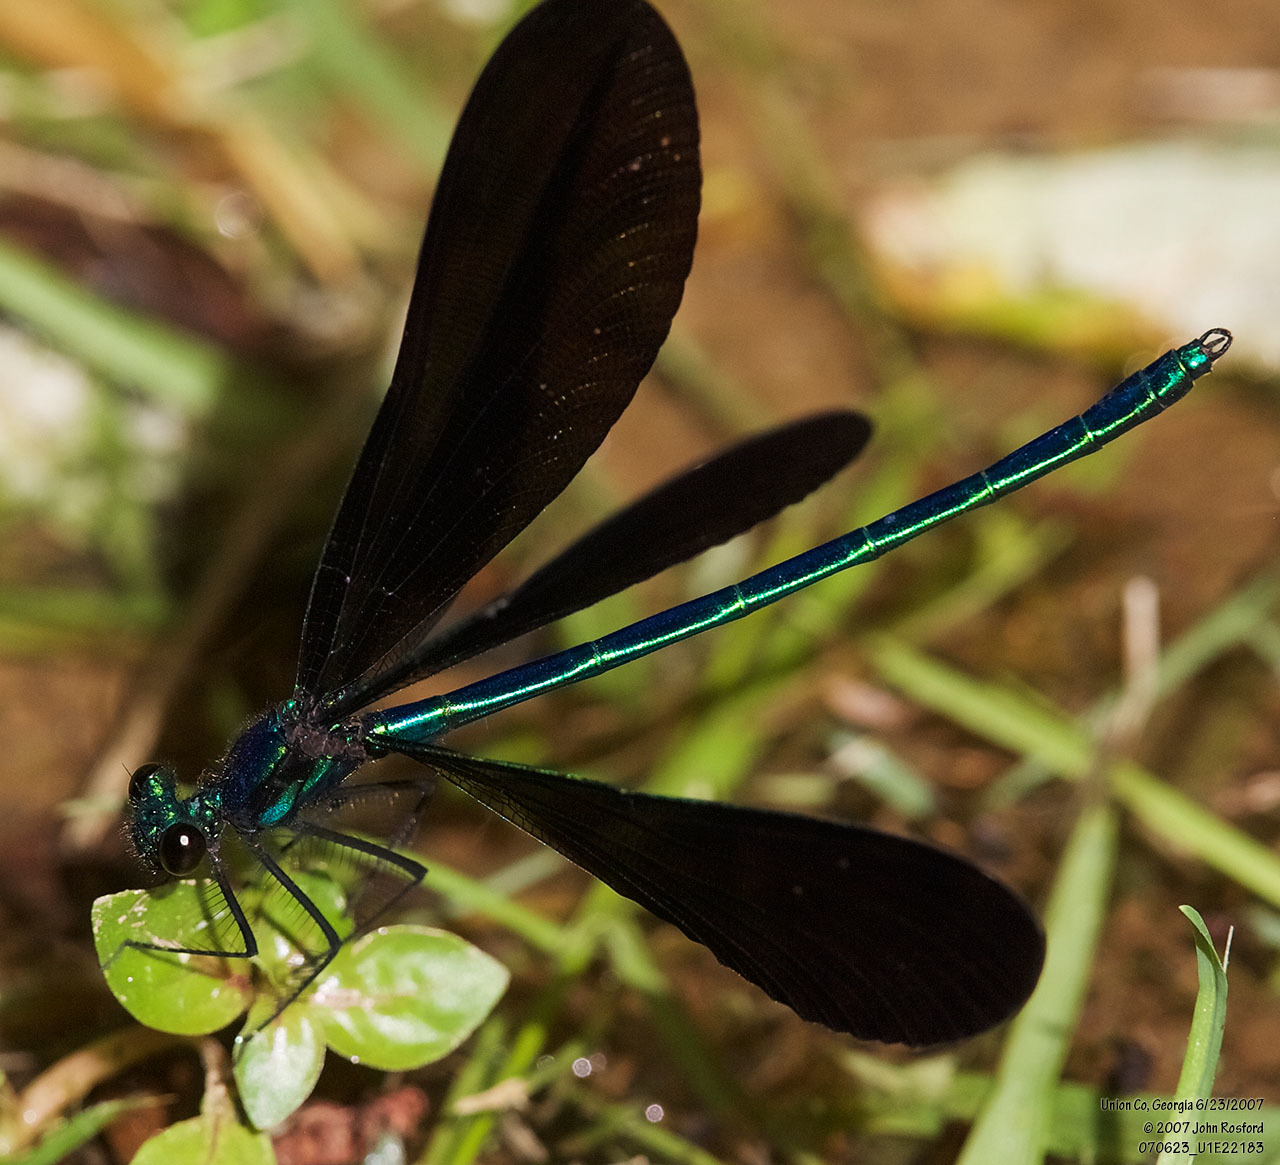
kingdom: Animalia
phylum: Arthropoda
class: Insecta
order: Odonata
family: Calopterygidae
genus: Calopteryx
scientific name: Calopteryx maculata
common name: Ebony jewelwing
